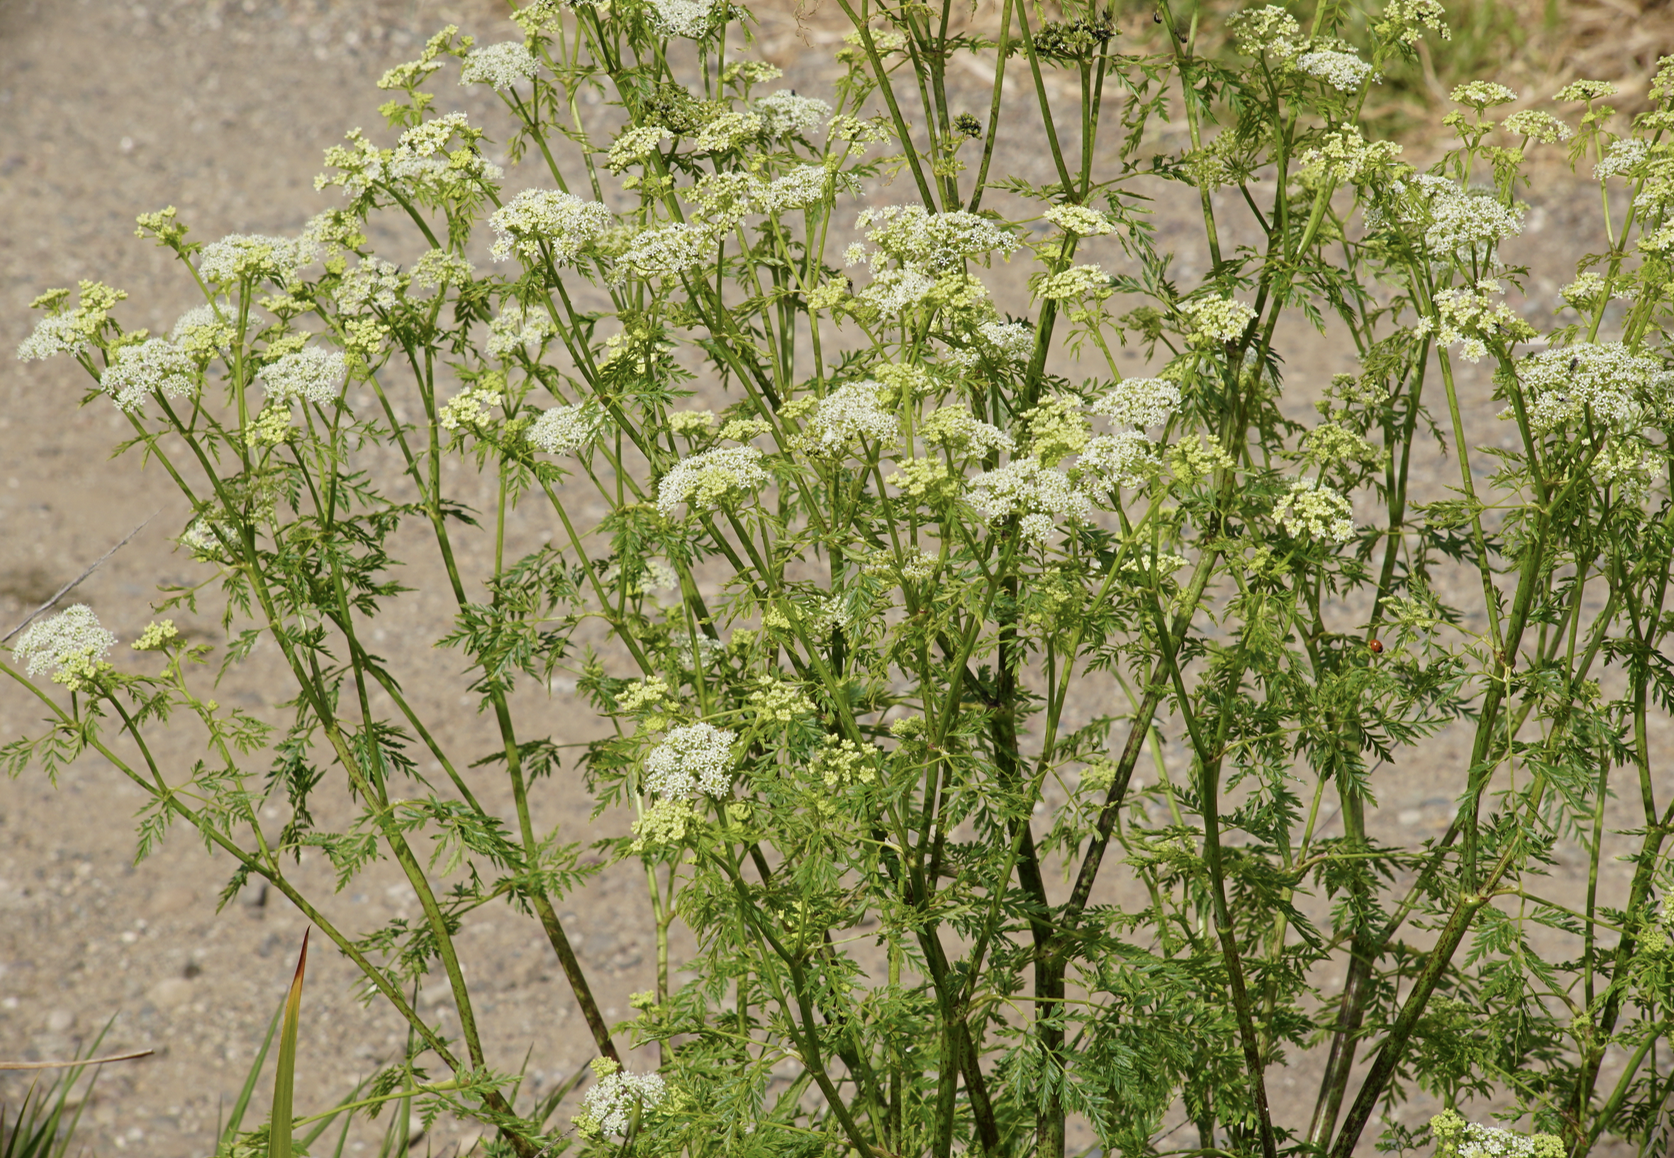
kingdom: Plantae
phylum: Tracheophyta
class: Magnoliopsida
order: Apiales
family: Apiaceae
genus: Conium
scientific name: Conium maculatum
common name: Hemlock
